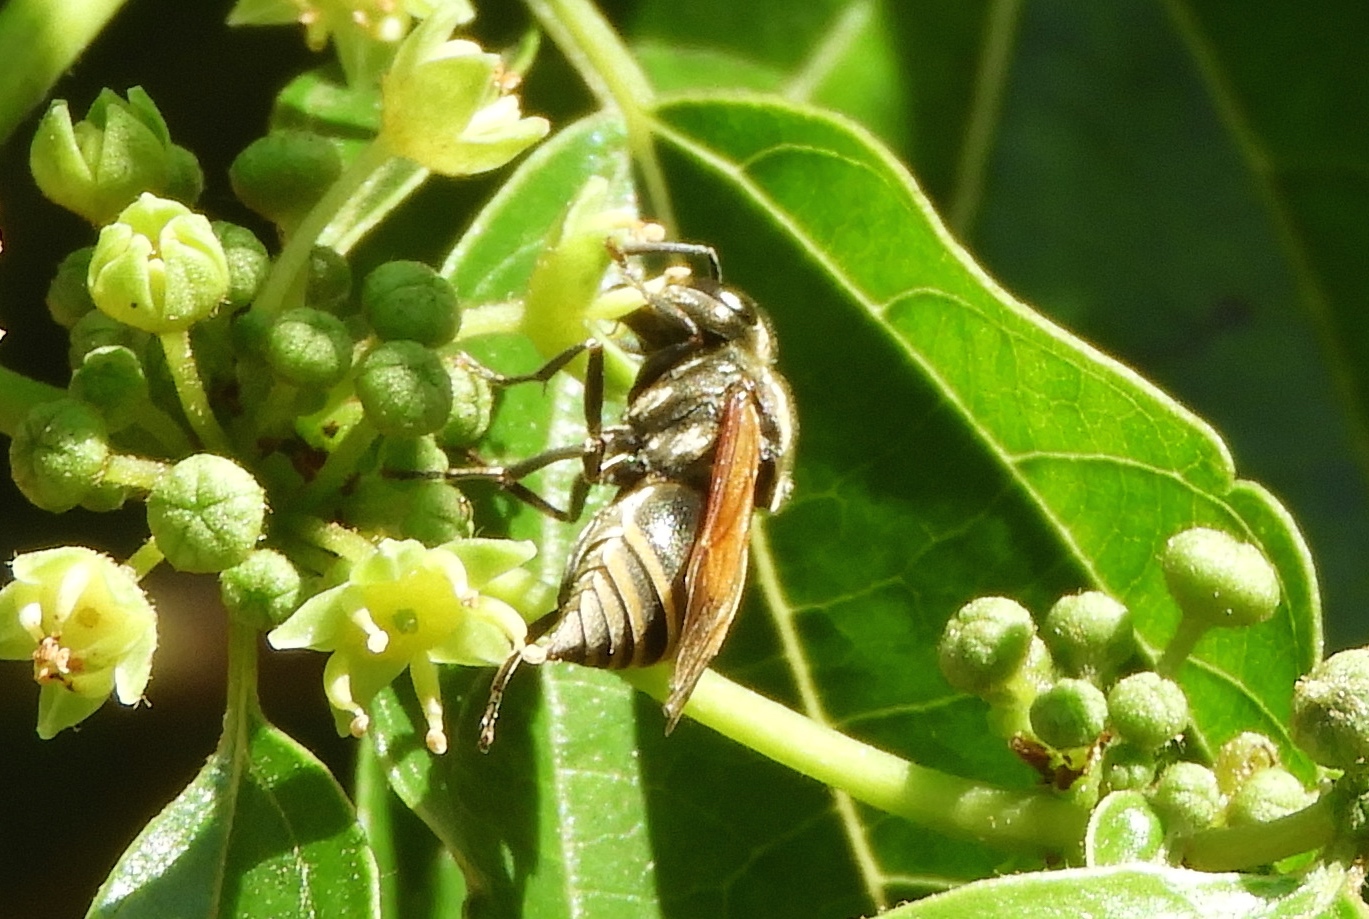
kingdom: Animalia
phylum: Arthropoda
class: Insecta
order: Hymenoptera
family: Vespidae
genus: Brachygastra
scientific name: Brachygastra mellifica
